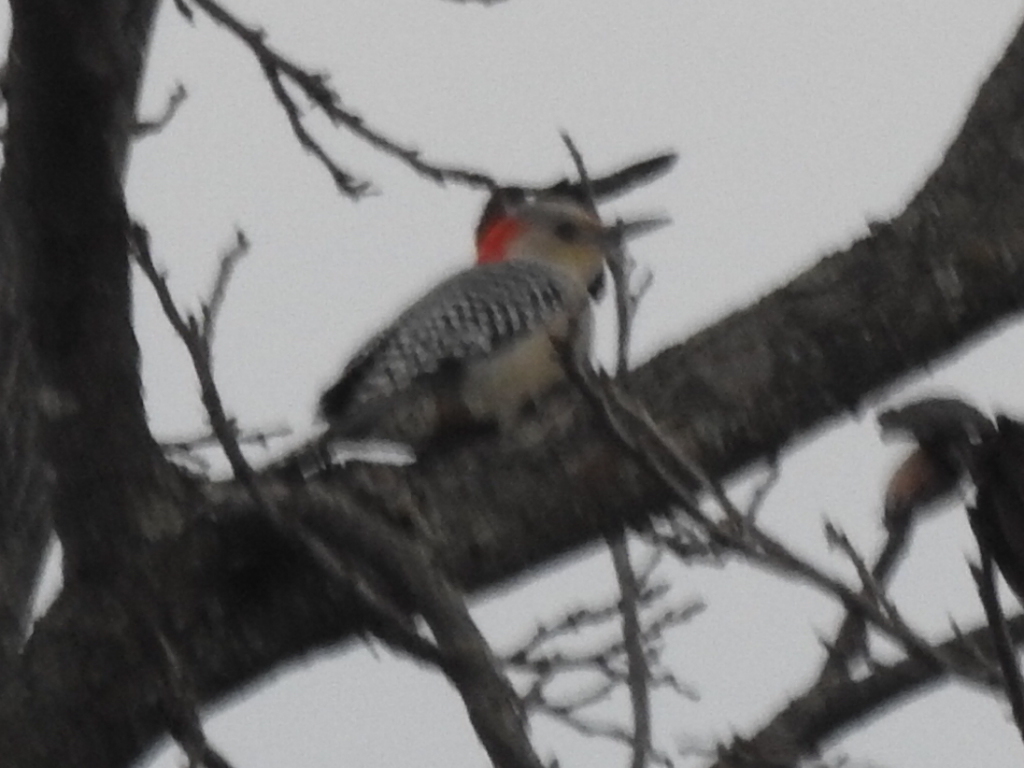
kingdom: Animalia
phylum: Chordata
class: Aves
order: Piciformes
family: Picidae
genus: Melanerpes
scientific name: Melanerpes carolinus
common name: Red-bellied woodpecker
